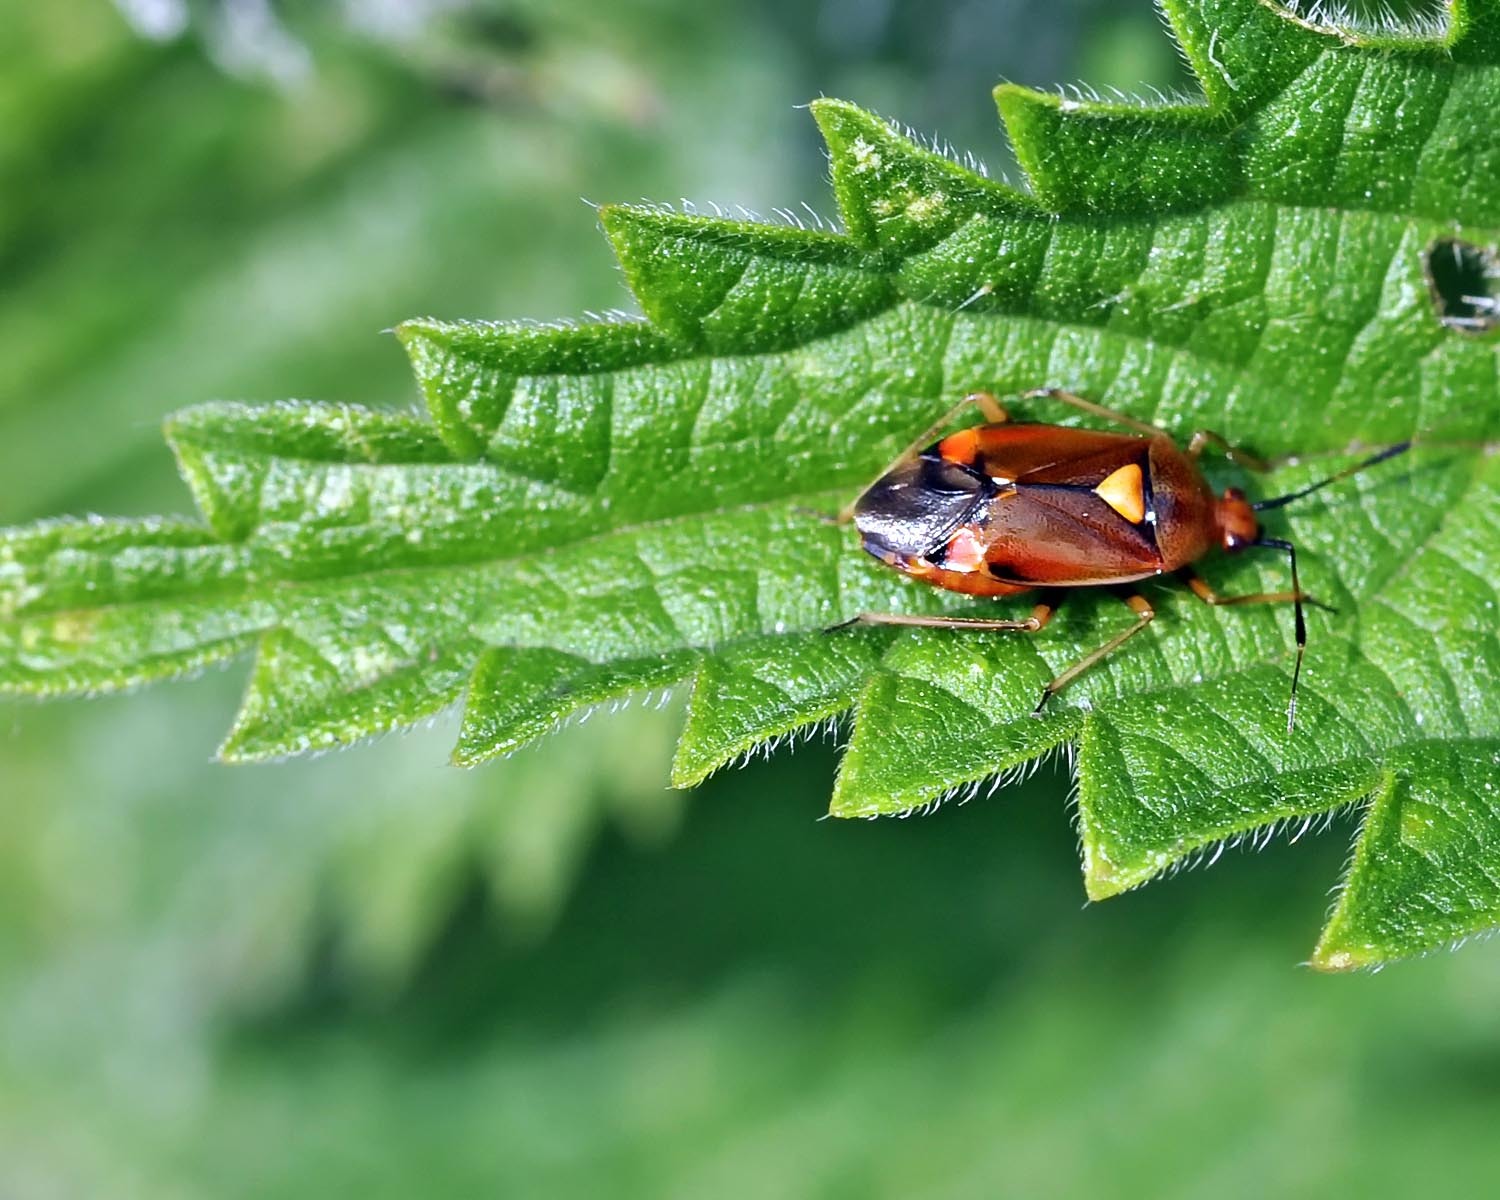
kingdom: Animalia
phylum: Arthropoda
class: Insecta
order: Hemiptera
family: Miridae
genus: Deraeocoris
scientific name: Deraeocoris ruber
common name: Plant bug
